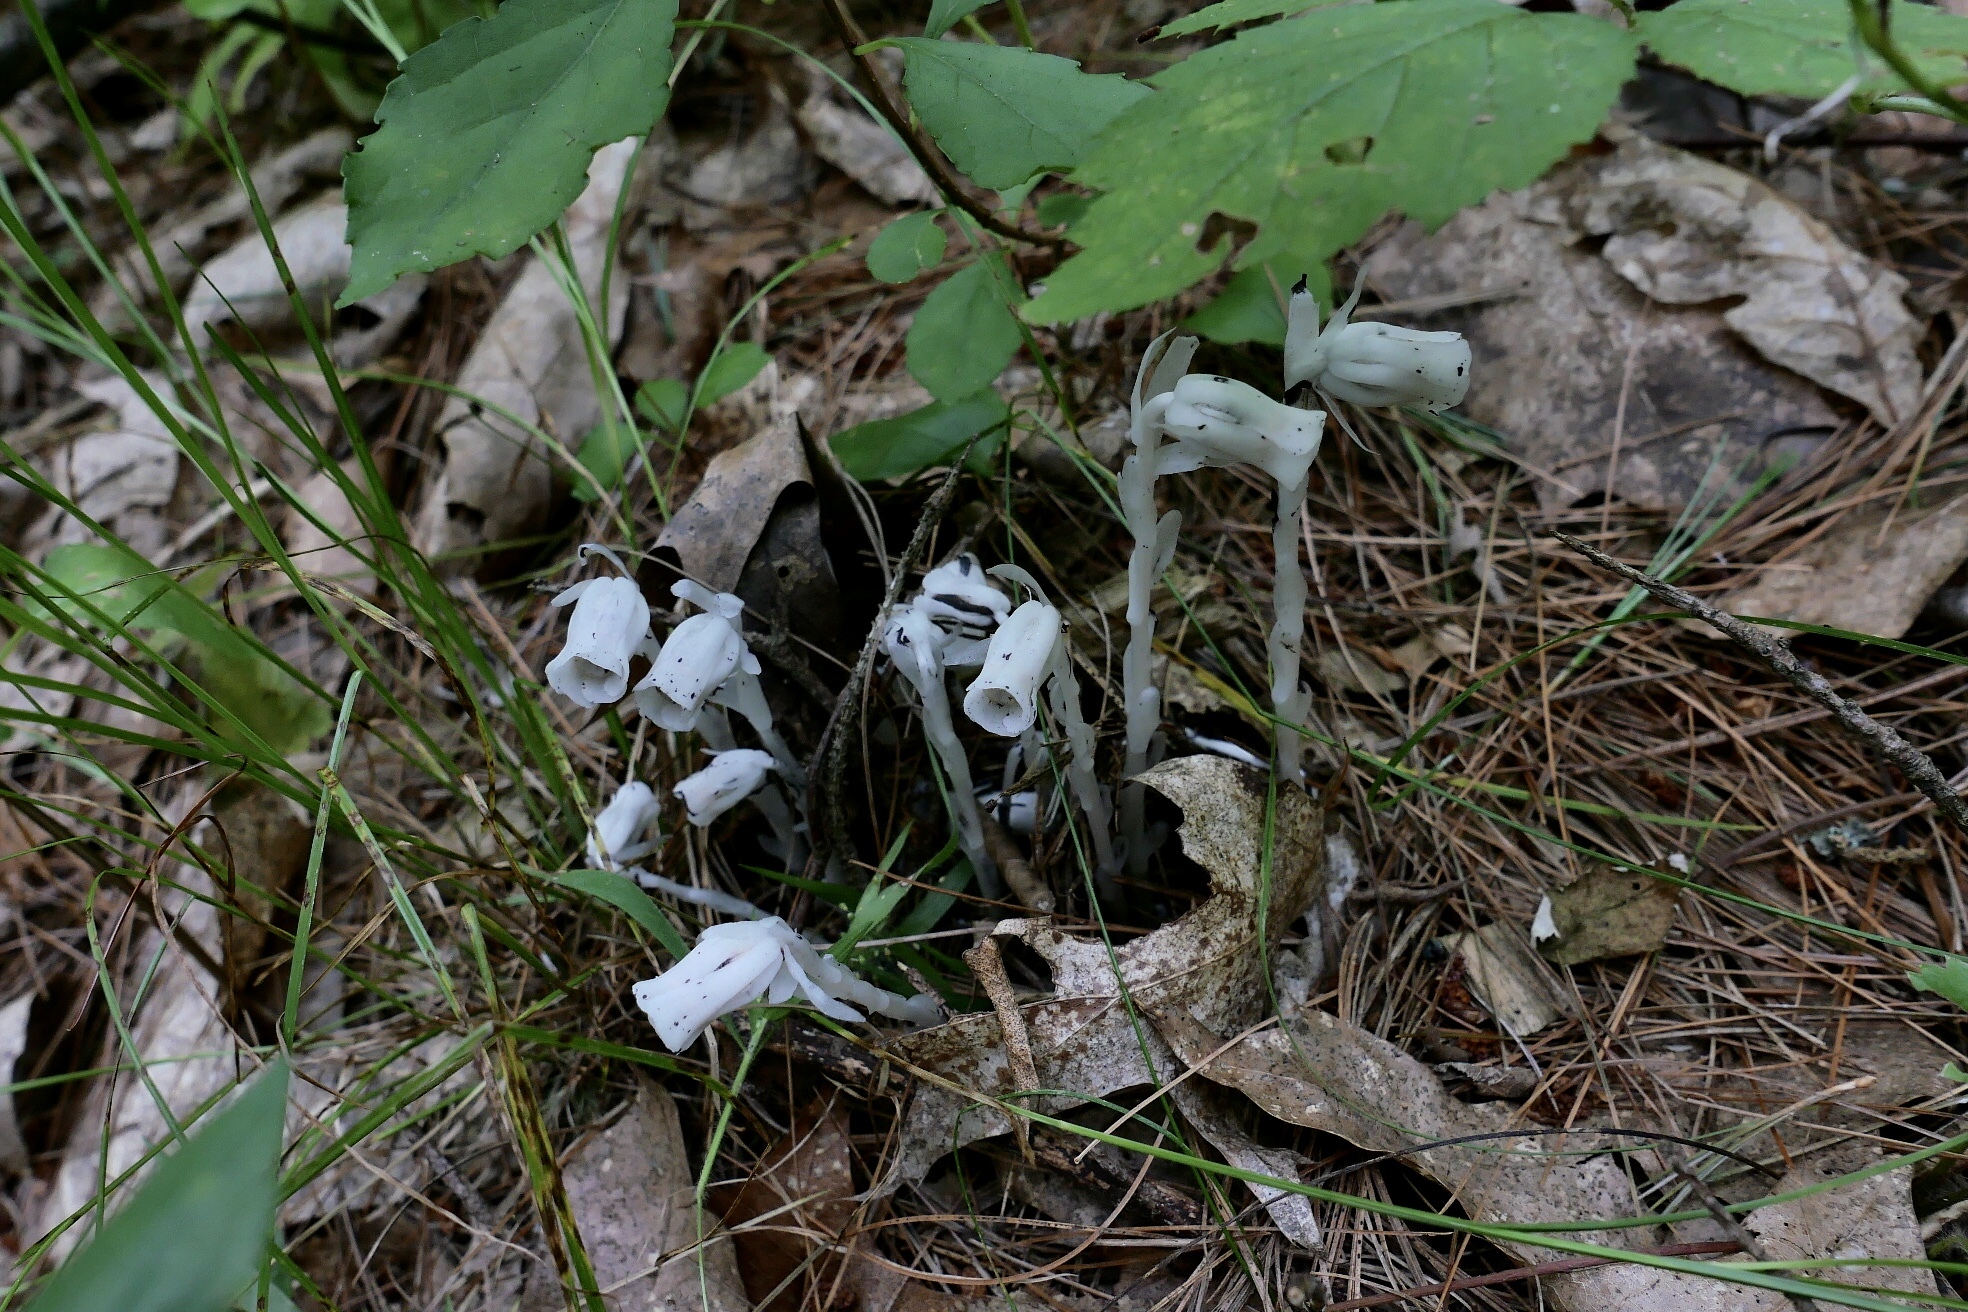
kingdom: Plantae
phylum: Tracheophyta
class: Magnoliopsida
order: Ericales
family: Ericaceae
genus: Monotropa
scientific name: Monotropa uniflora
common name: Convulsion root
